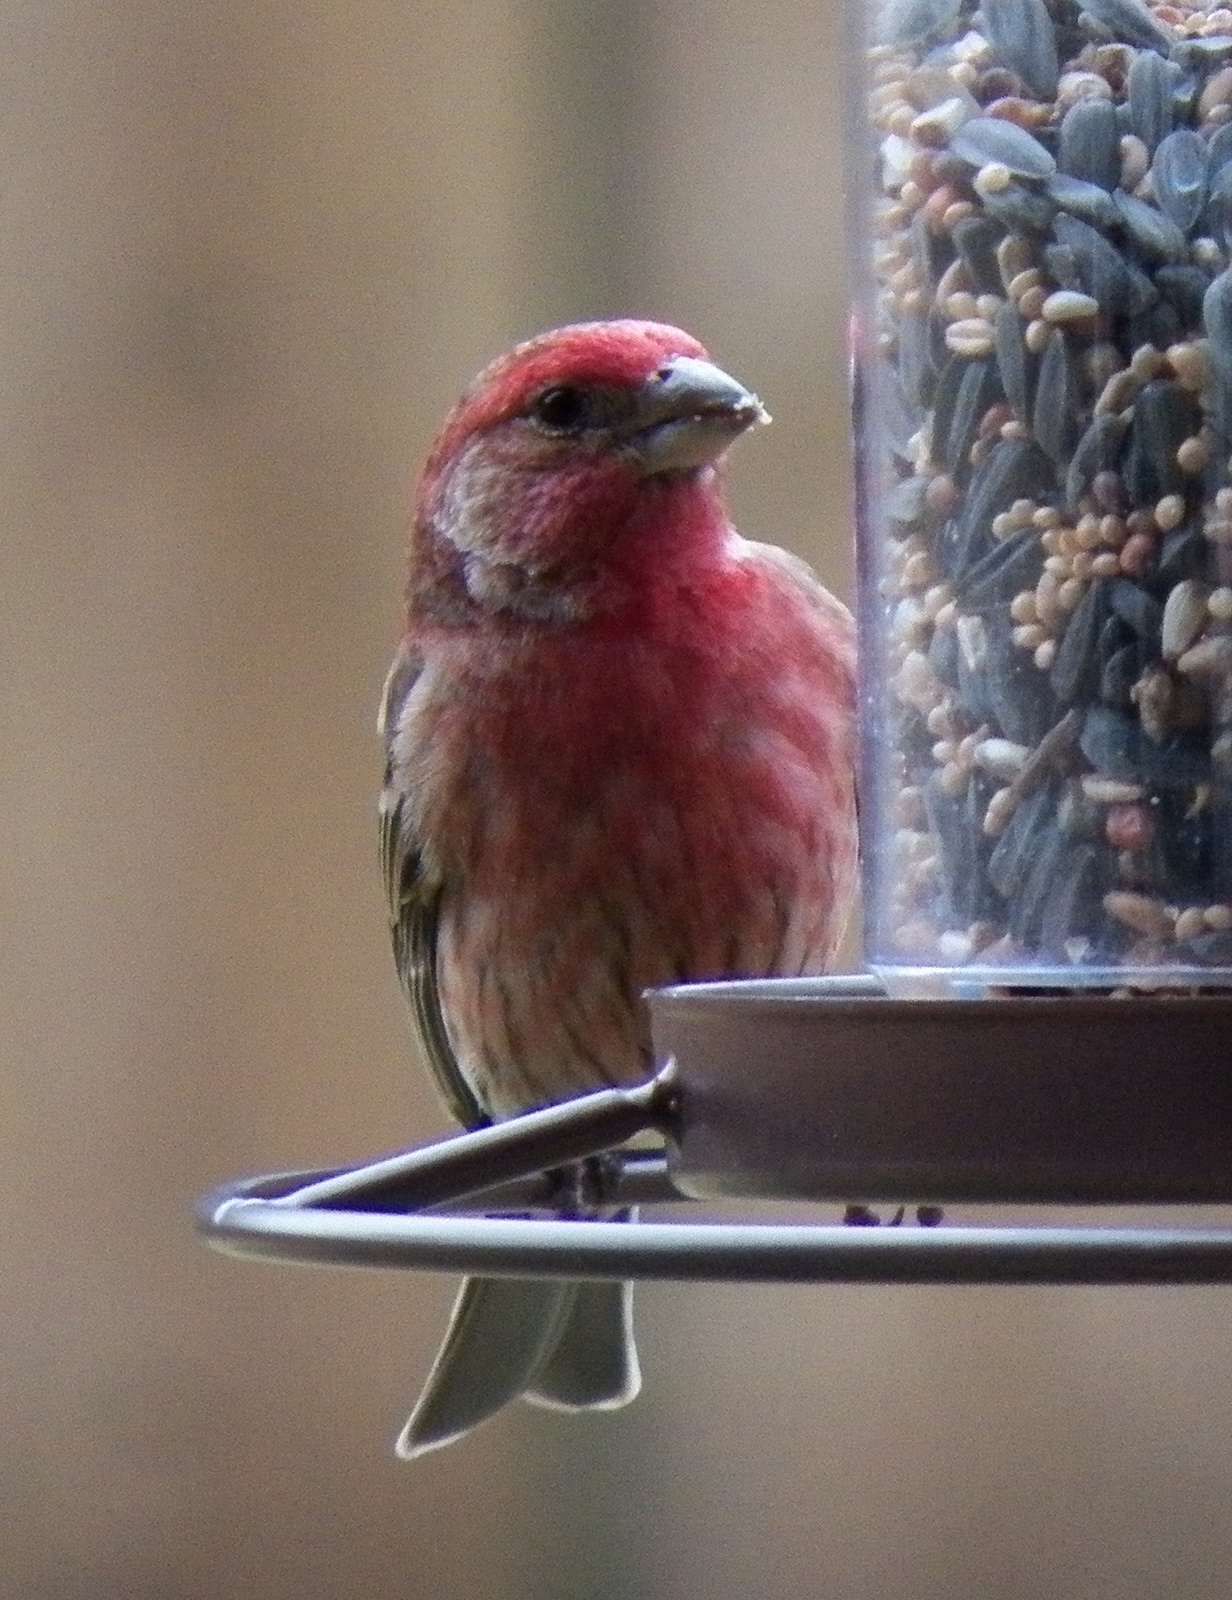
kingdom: Animalia
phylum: Chordata
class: Aves
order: Passeriformes
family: Fringillidae
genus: Haemorhous
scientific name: Haemorhous mexicanus
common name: House finch
